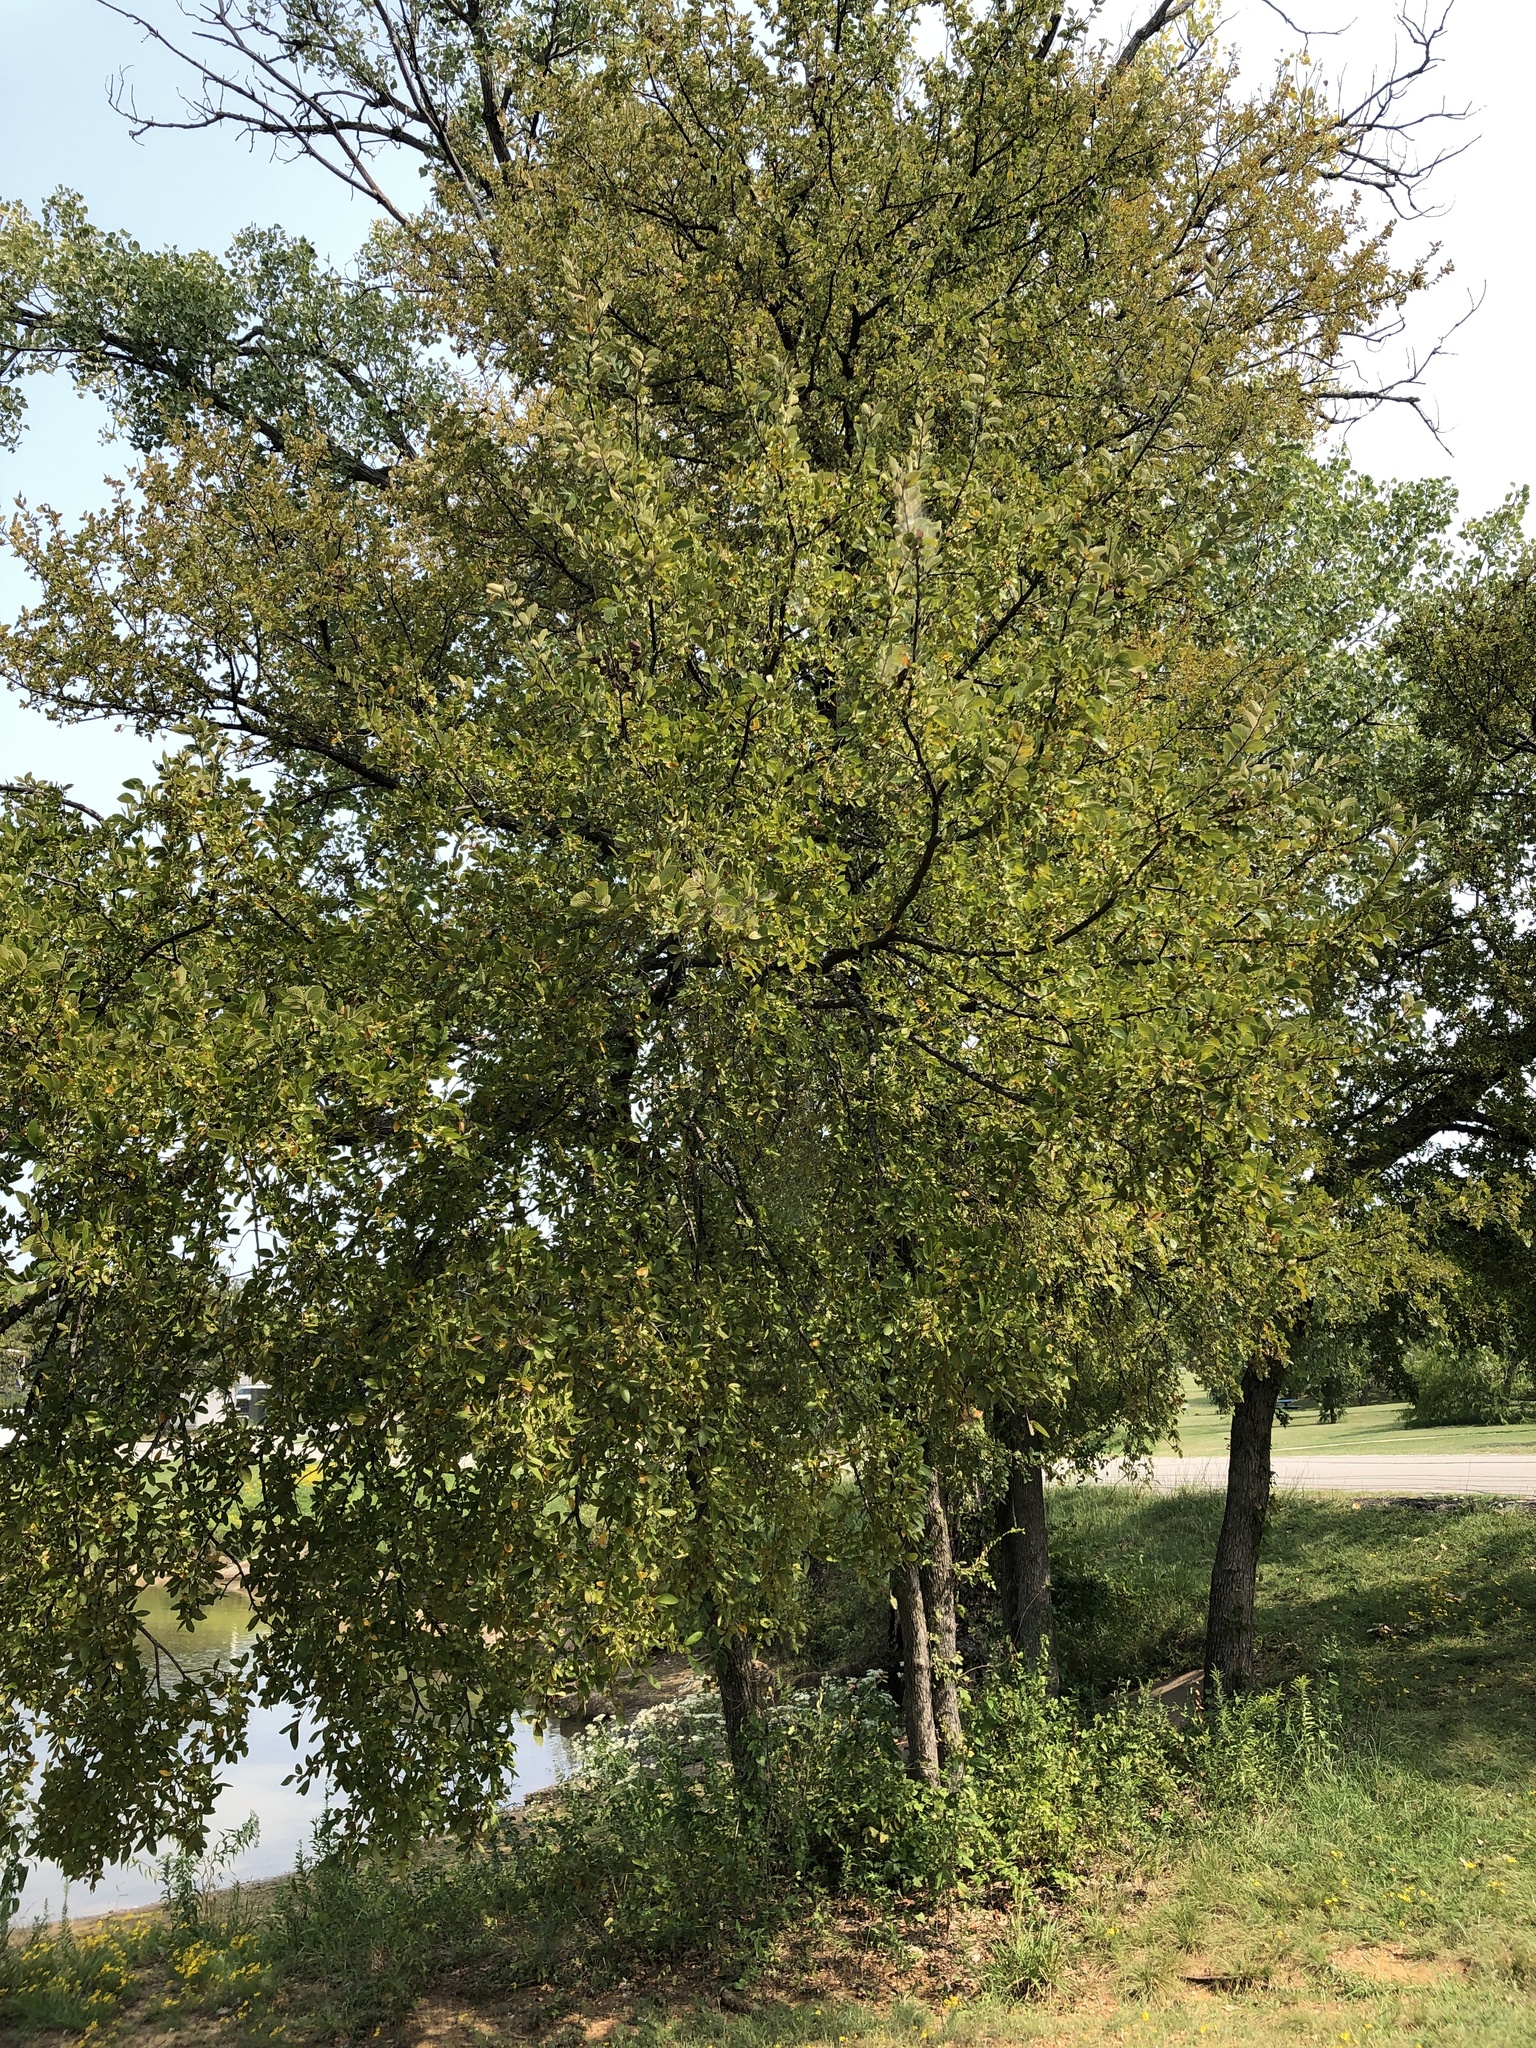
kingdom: Plantae
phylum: Tracheophyta
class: Magnoliopsida
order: Rosales
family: Ulmaceae
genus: Ulmus
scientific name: Ulmus crassifolia
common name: Basket elm
